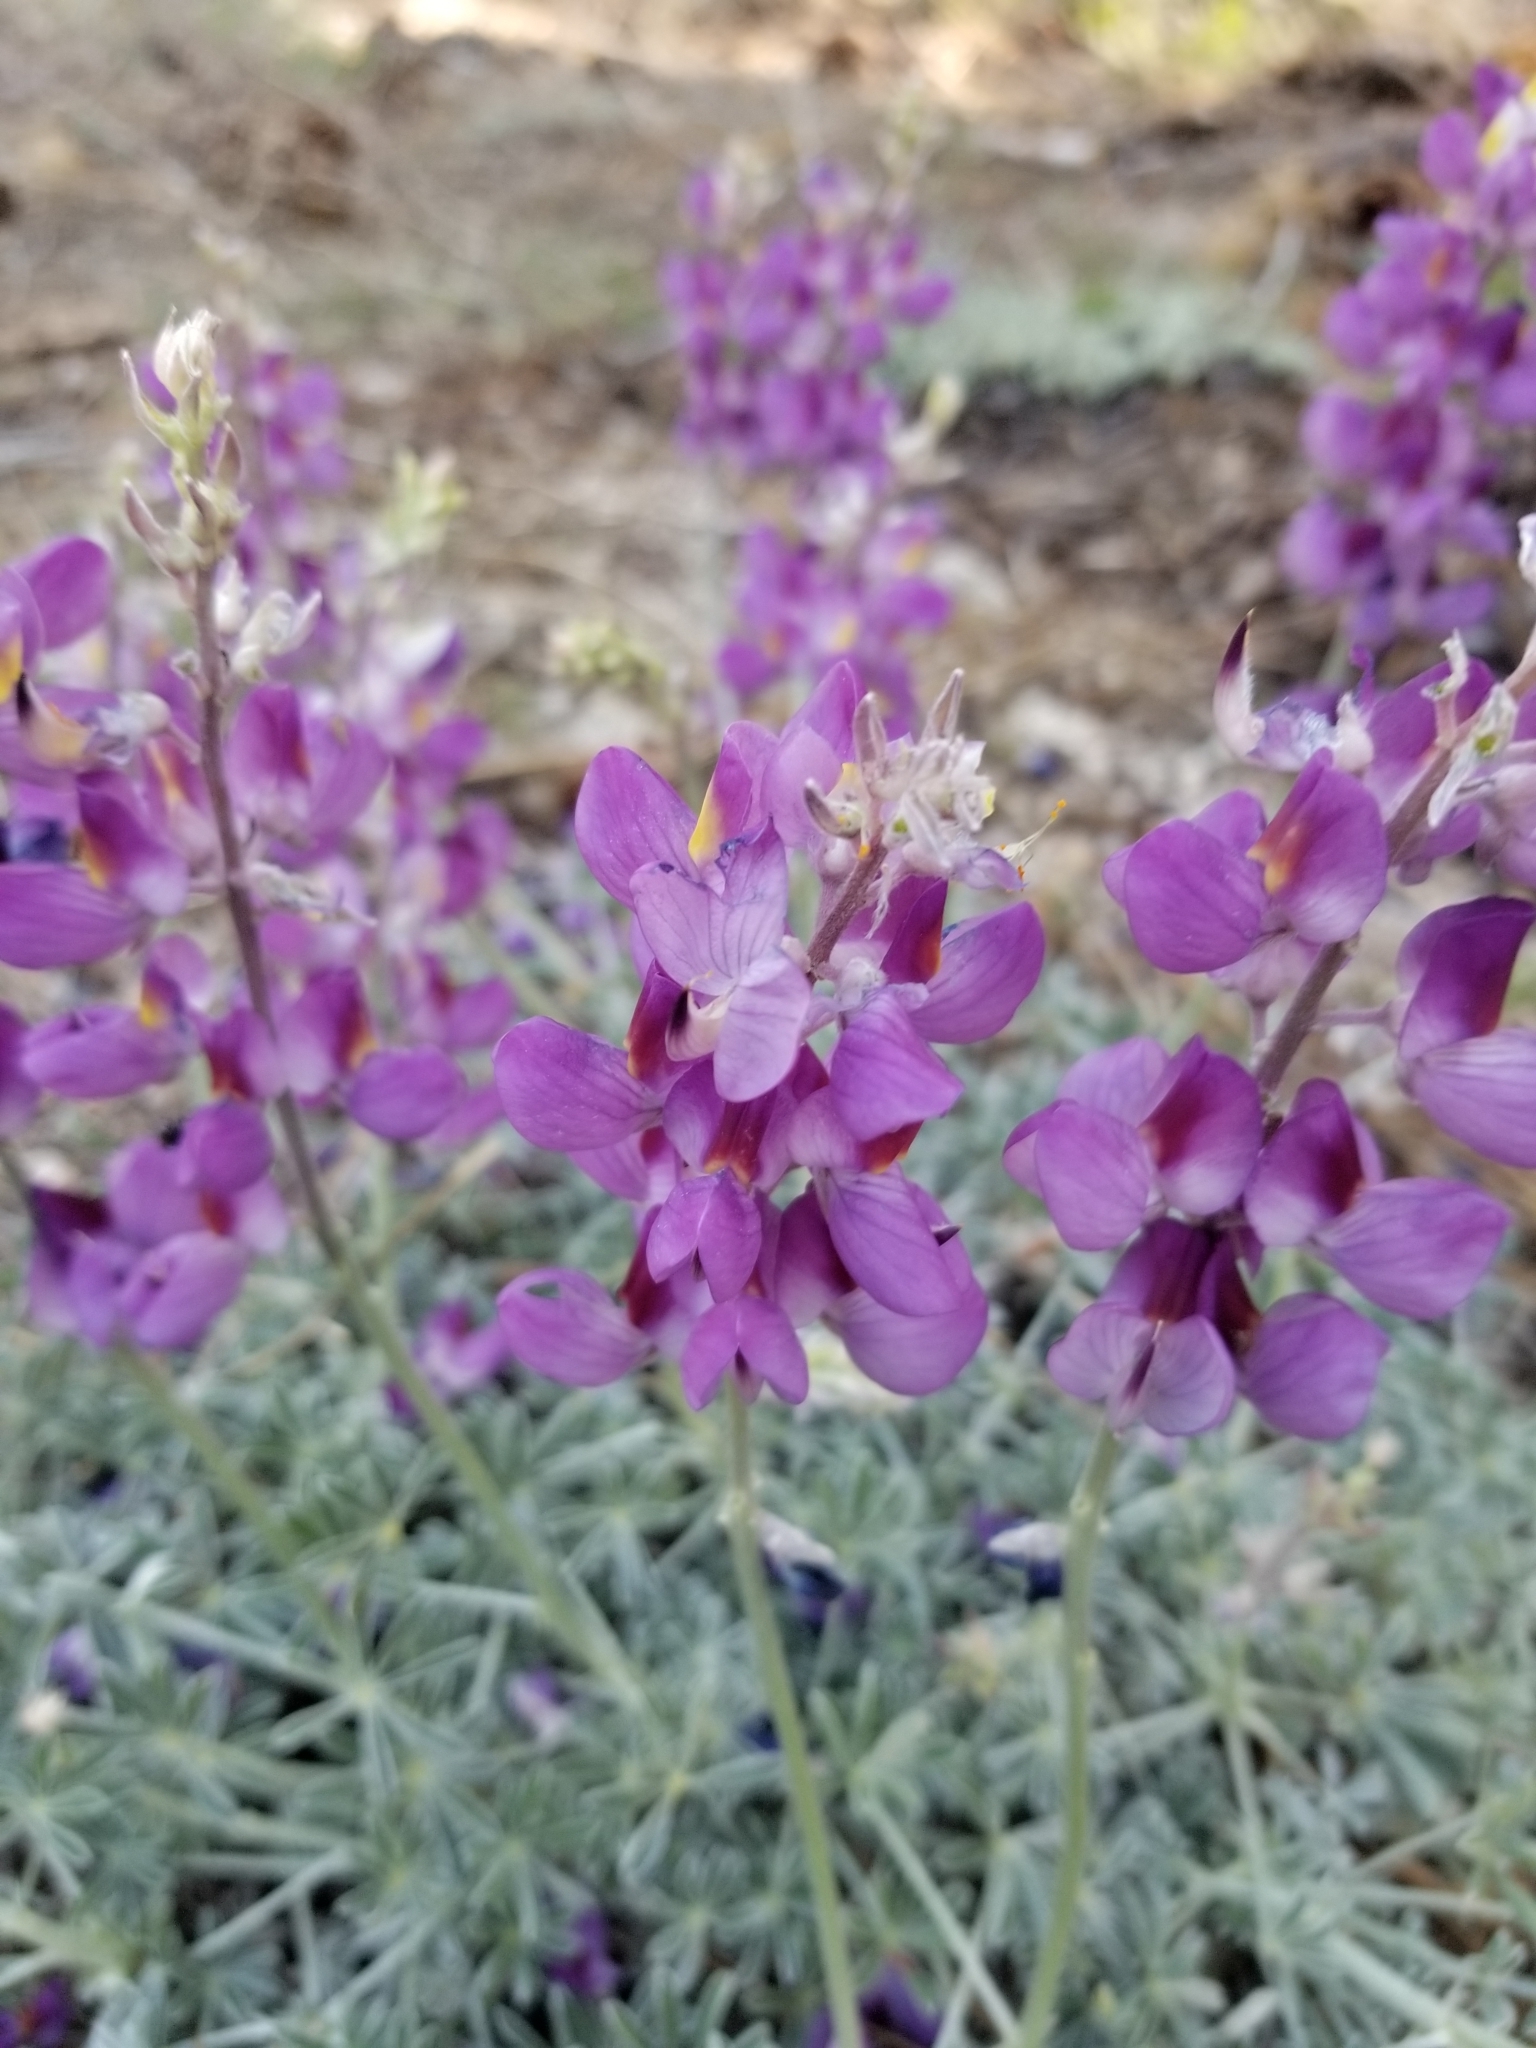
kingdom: Plantae
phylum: Tracheophyta
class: Magnoliopsida
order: Fabales
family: Fabaceae
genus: Lupinus
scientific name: Lupinus excubitus
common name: Grape soda lupine
